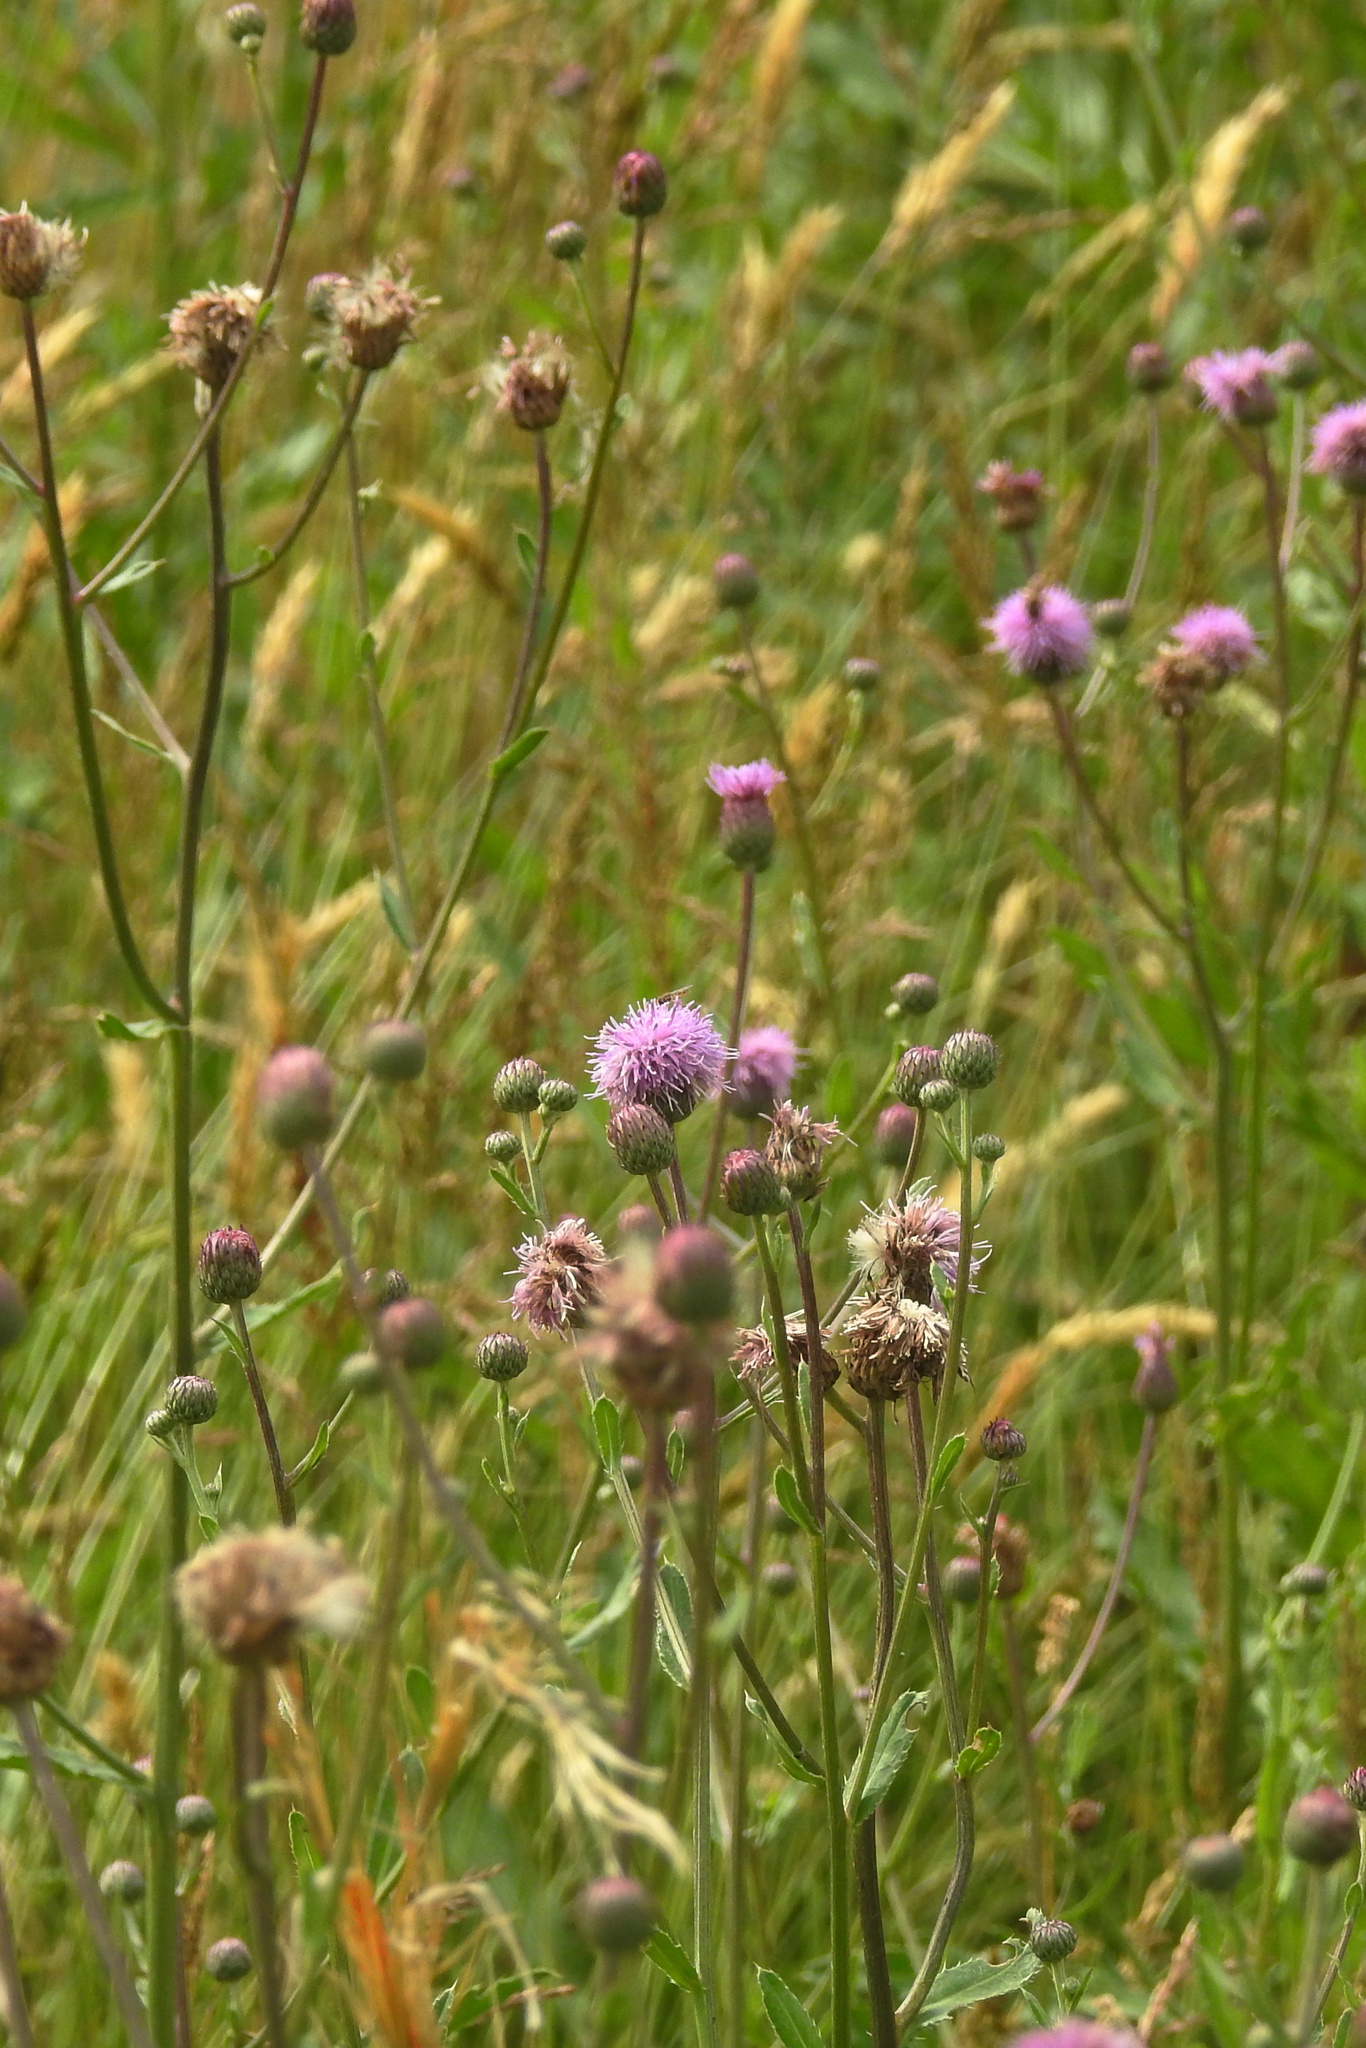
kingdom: Plantae
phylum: Tracheophyta
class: Magnoliopsida
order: Asterales
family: Asteraceae
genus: Cirsium
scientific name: Cirsium arvense
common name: Creeping thistle
